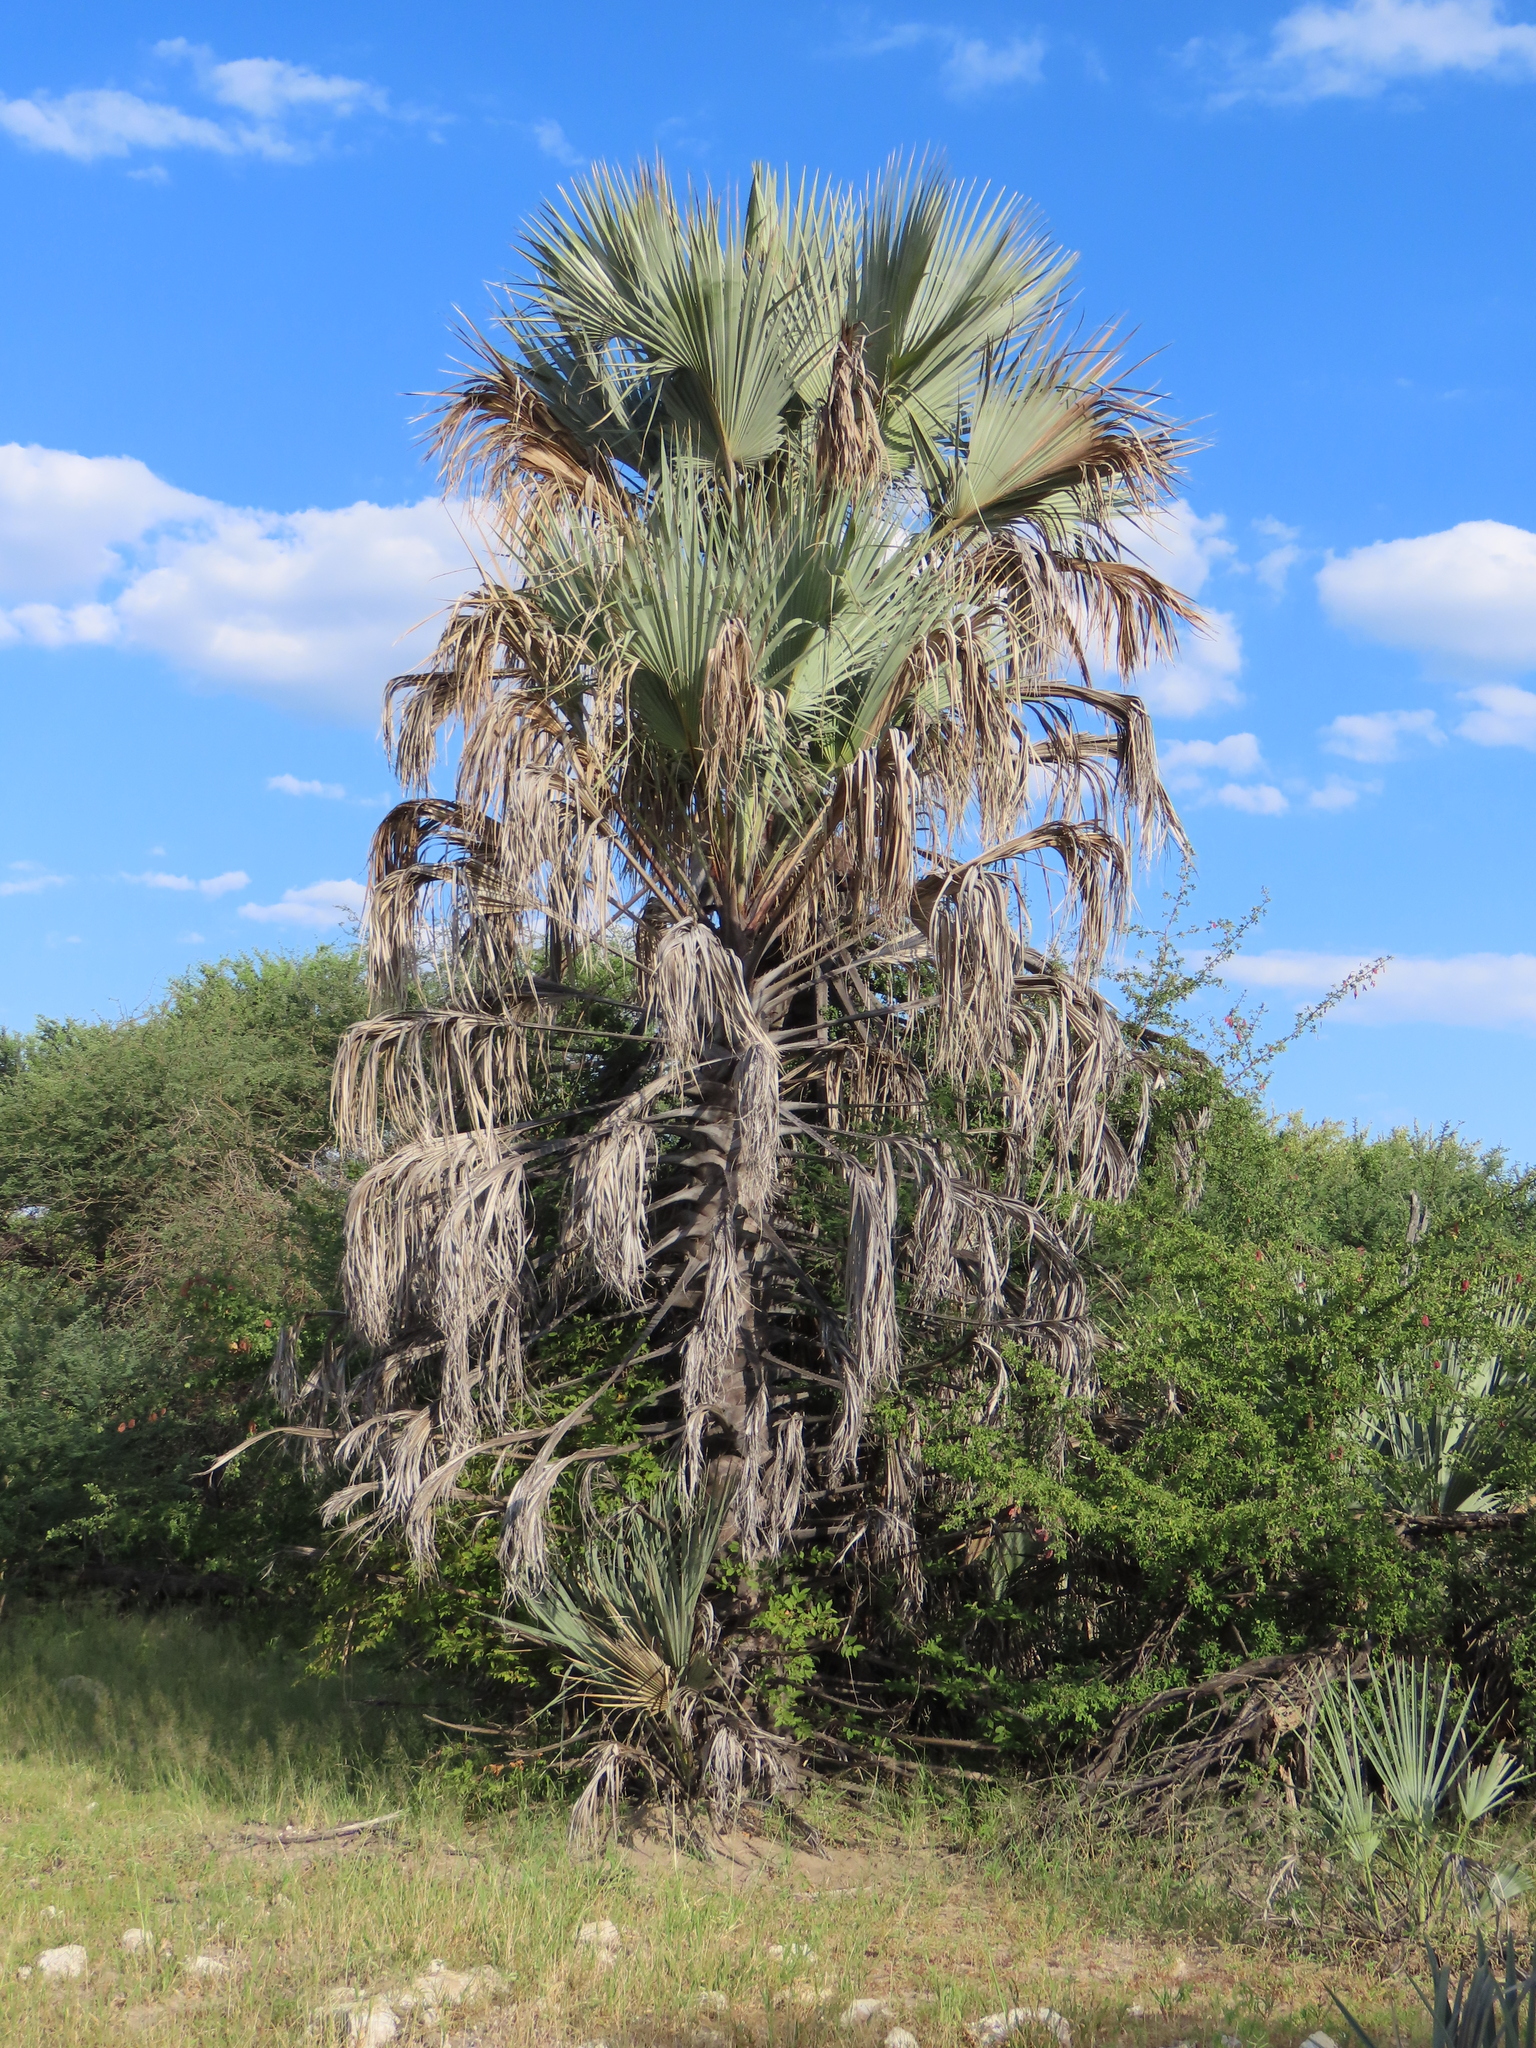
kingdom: Plantae
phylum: Tracheophyta
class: Liliopsida
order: Arecales
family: Arecaceae
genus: Hyphaene
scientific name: Hyphaene petersiana
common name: African ivory nut palm
